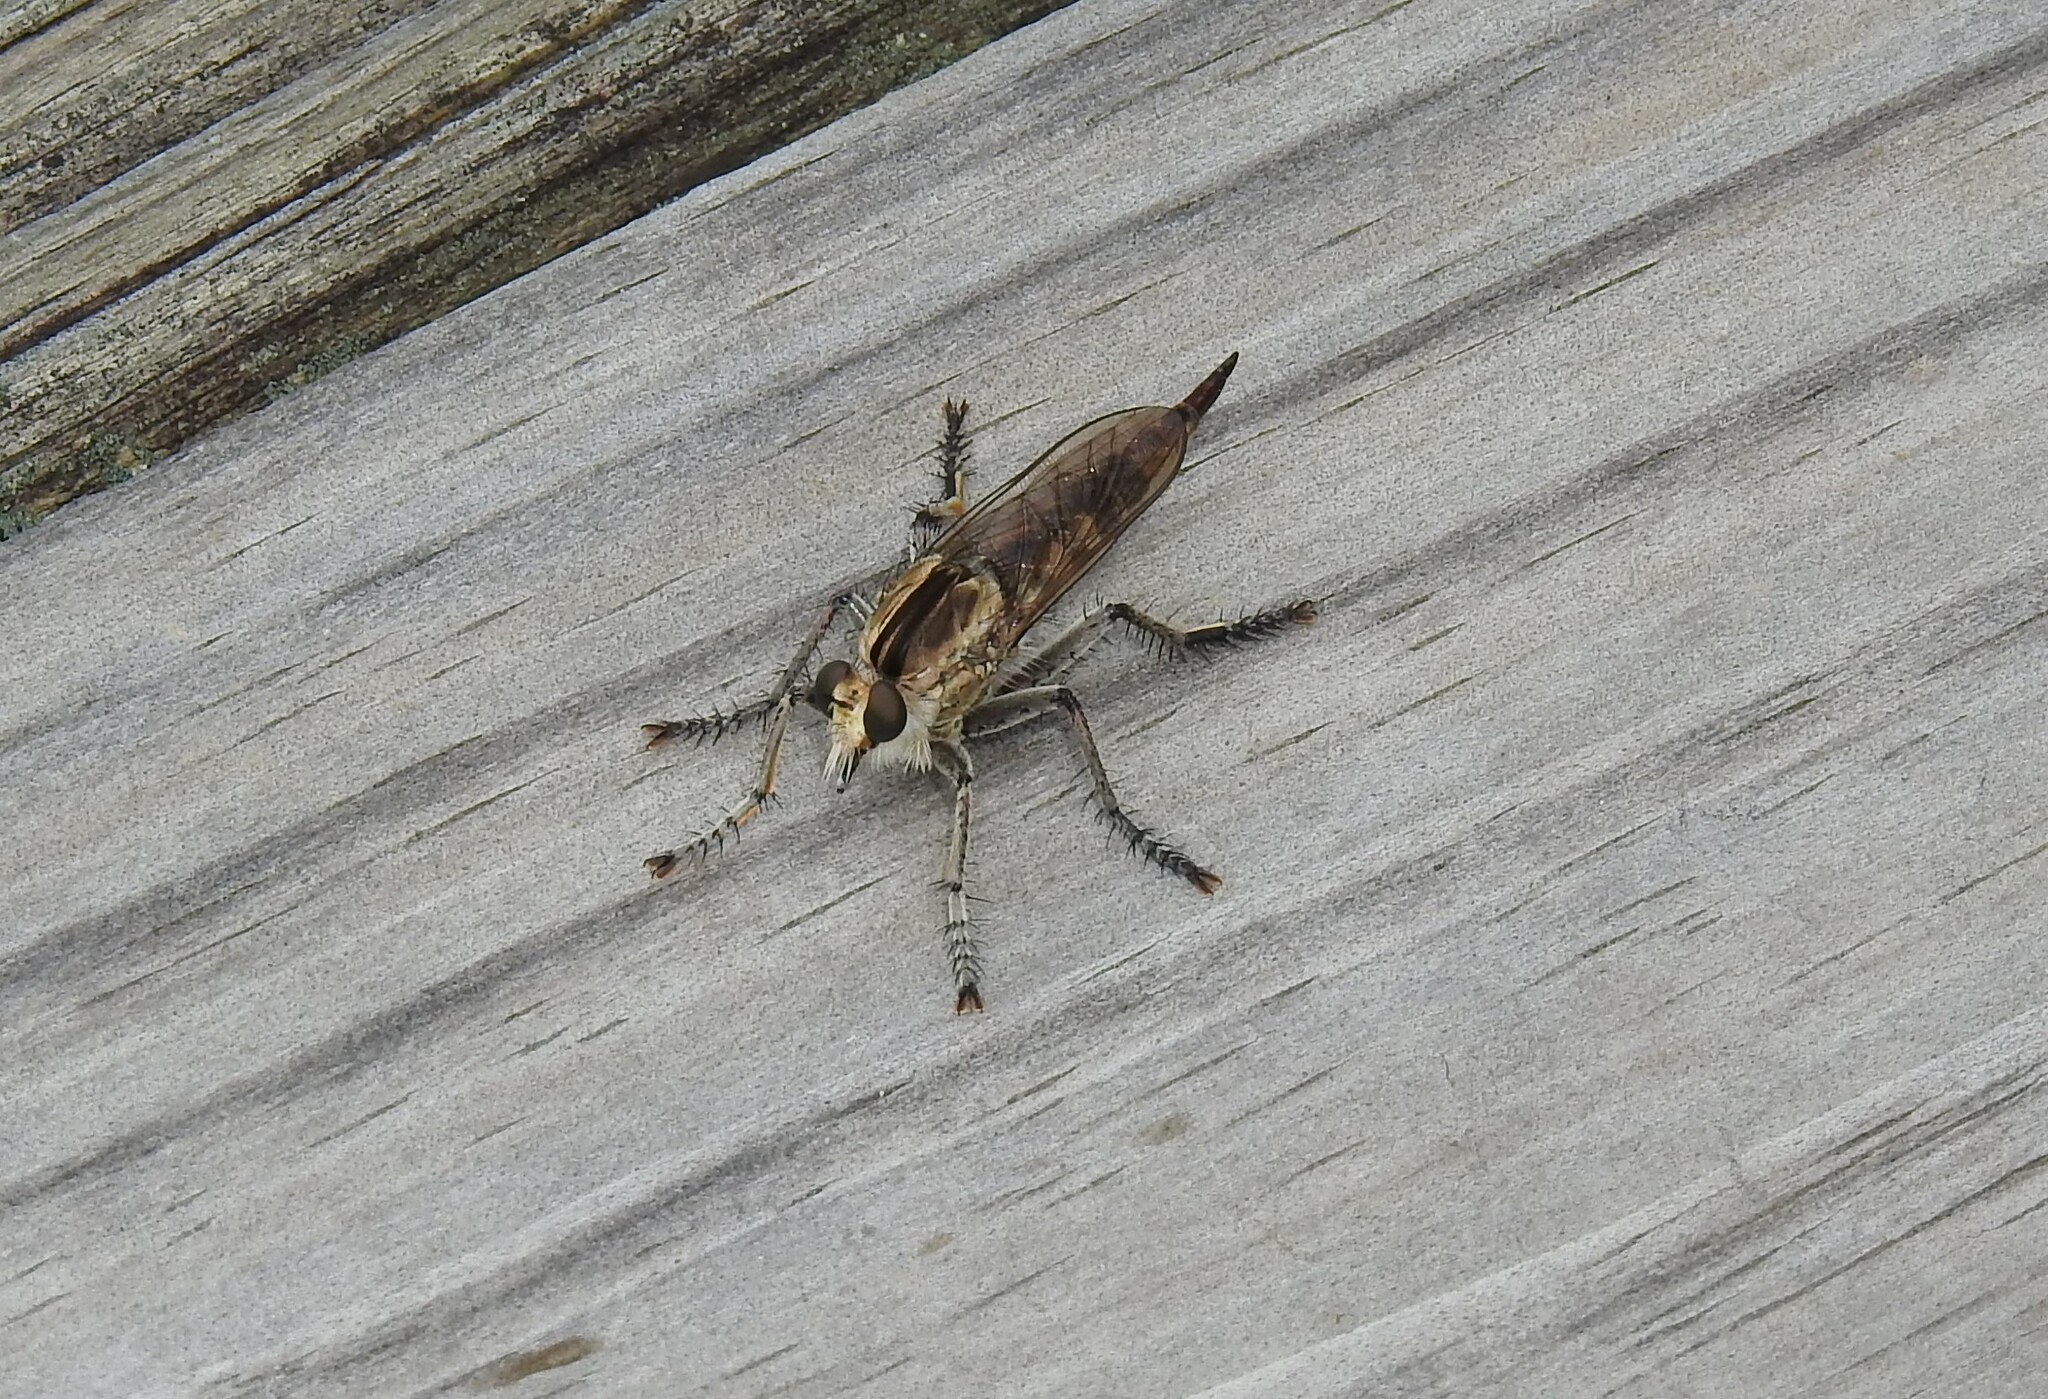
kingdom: Animalia
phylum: Arthropoda
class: Insecta
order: Diptera
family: Asilidae
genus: Triorla
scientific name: Triorla interrupta
